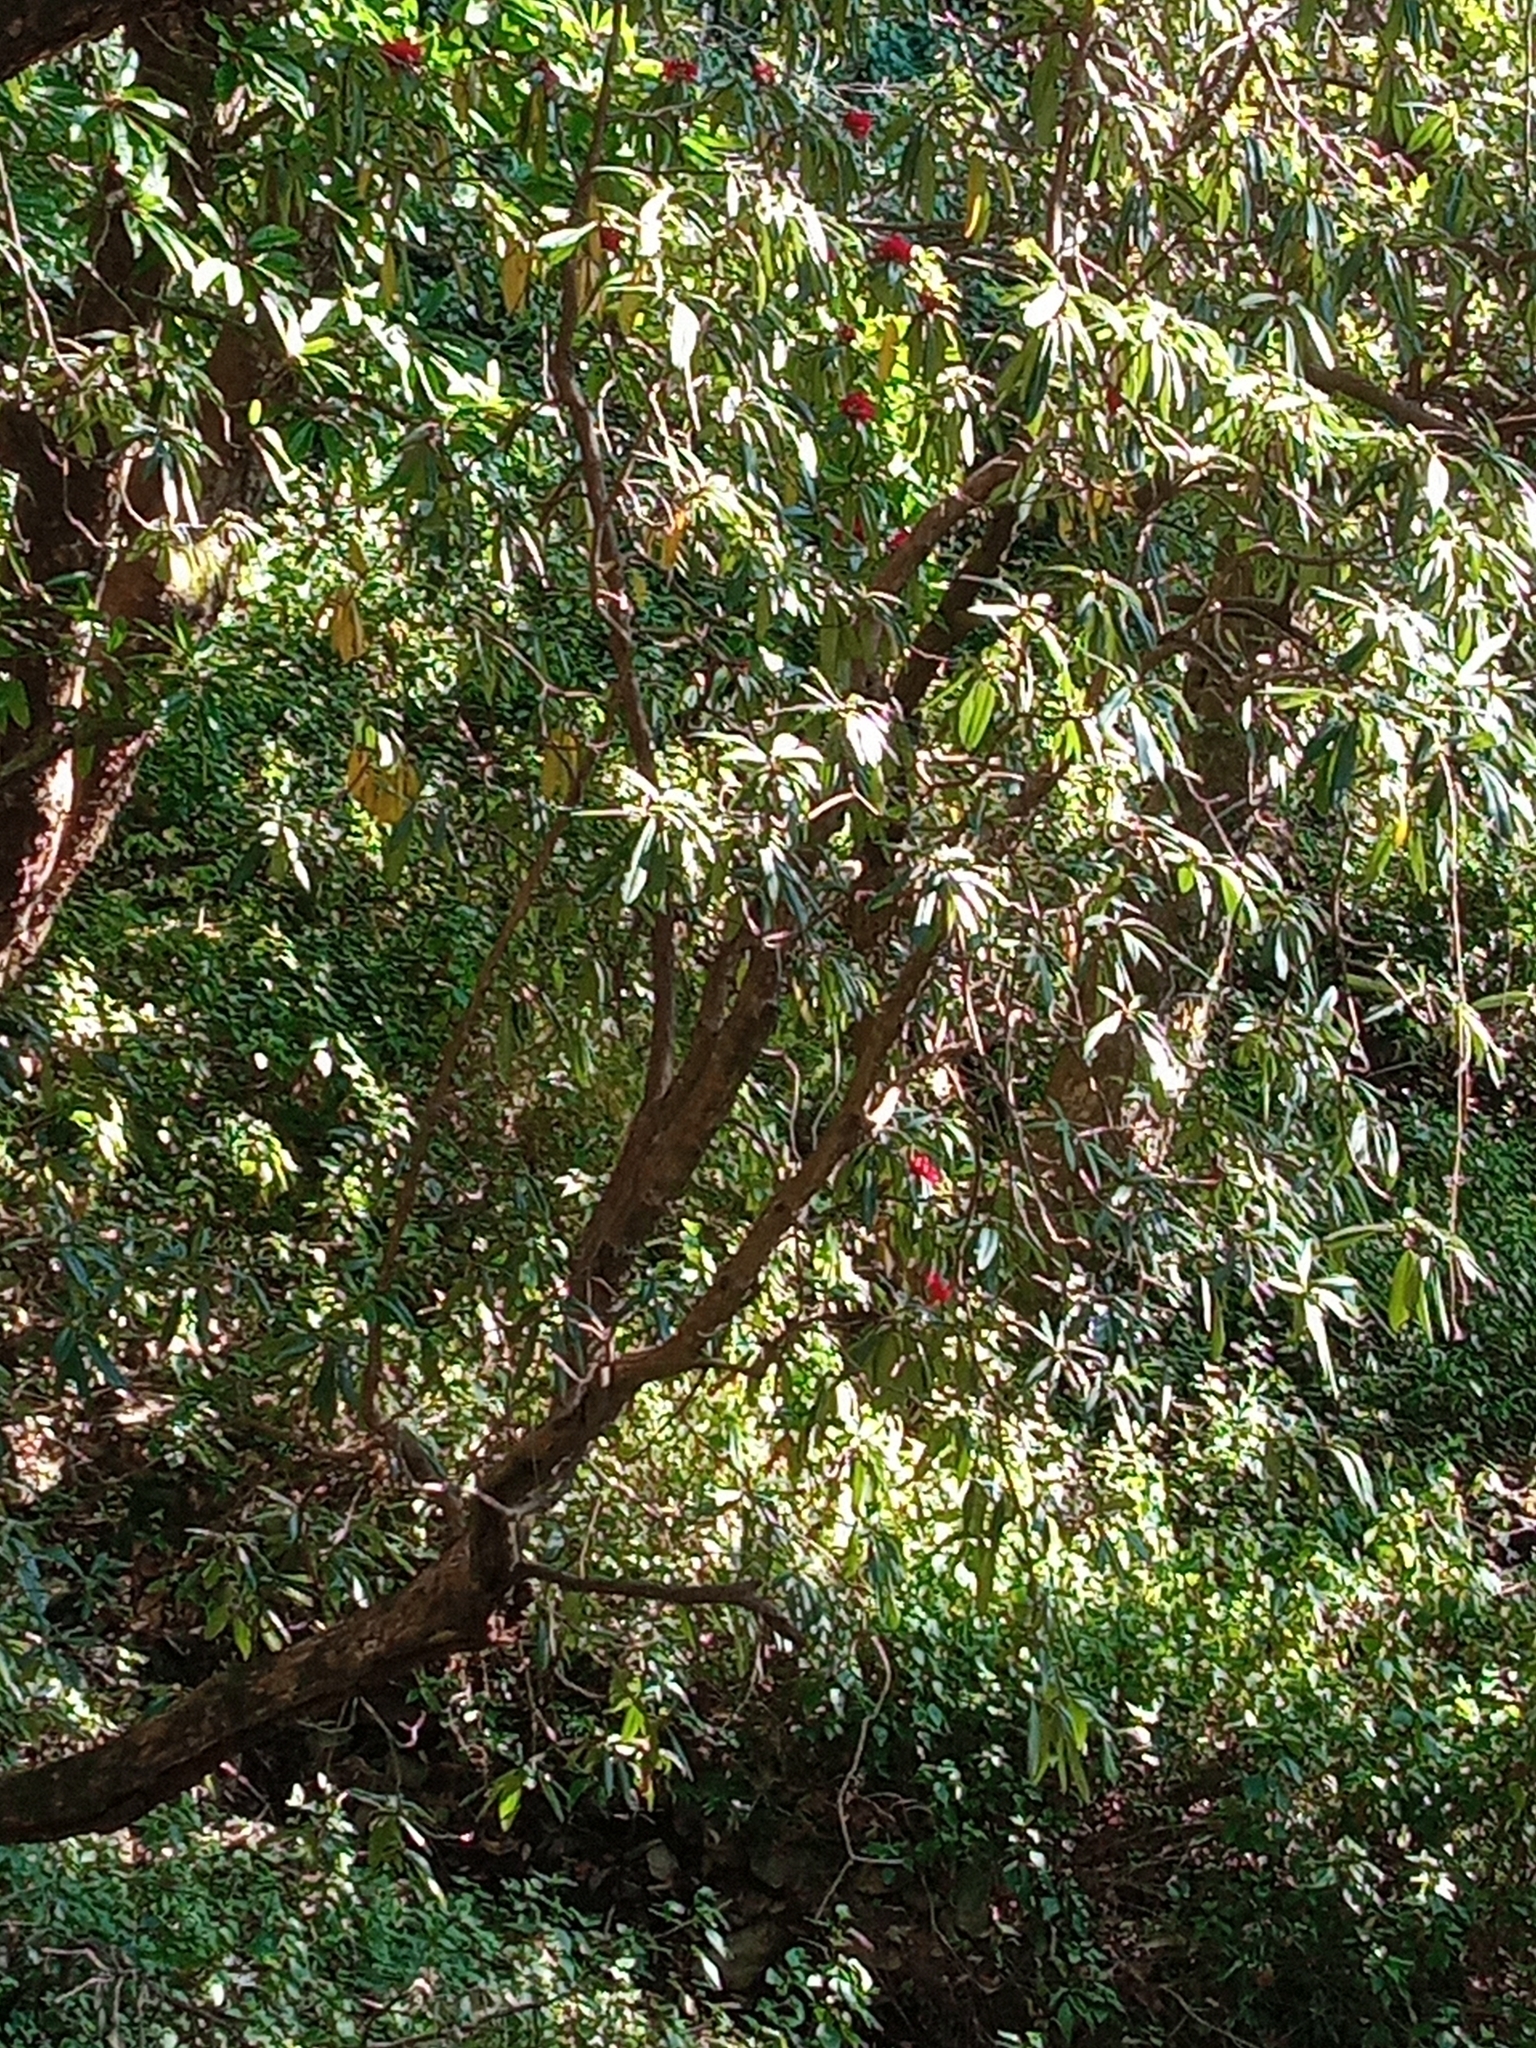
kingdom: Plantae
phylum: Tracheophyta
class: Magnoliopsida
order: Ericales
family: Ericaceae
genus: Rhododendron
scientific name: Rhododendron arboreum
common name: Tree rhododendron
